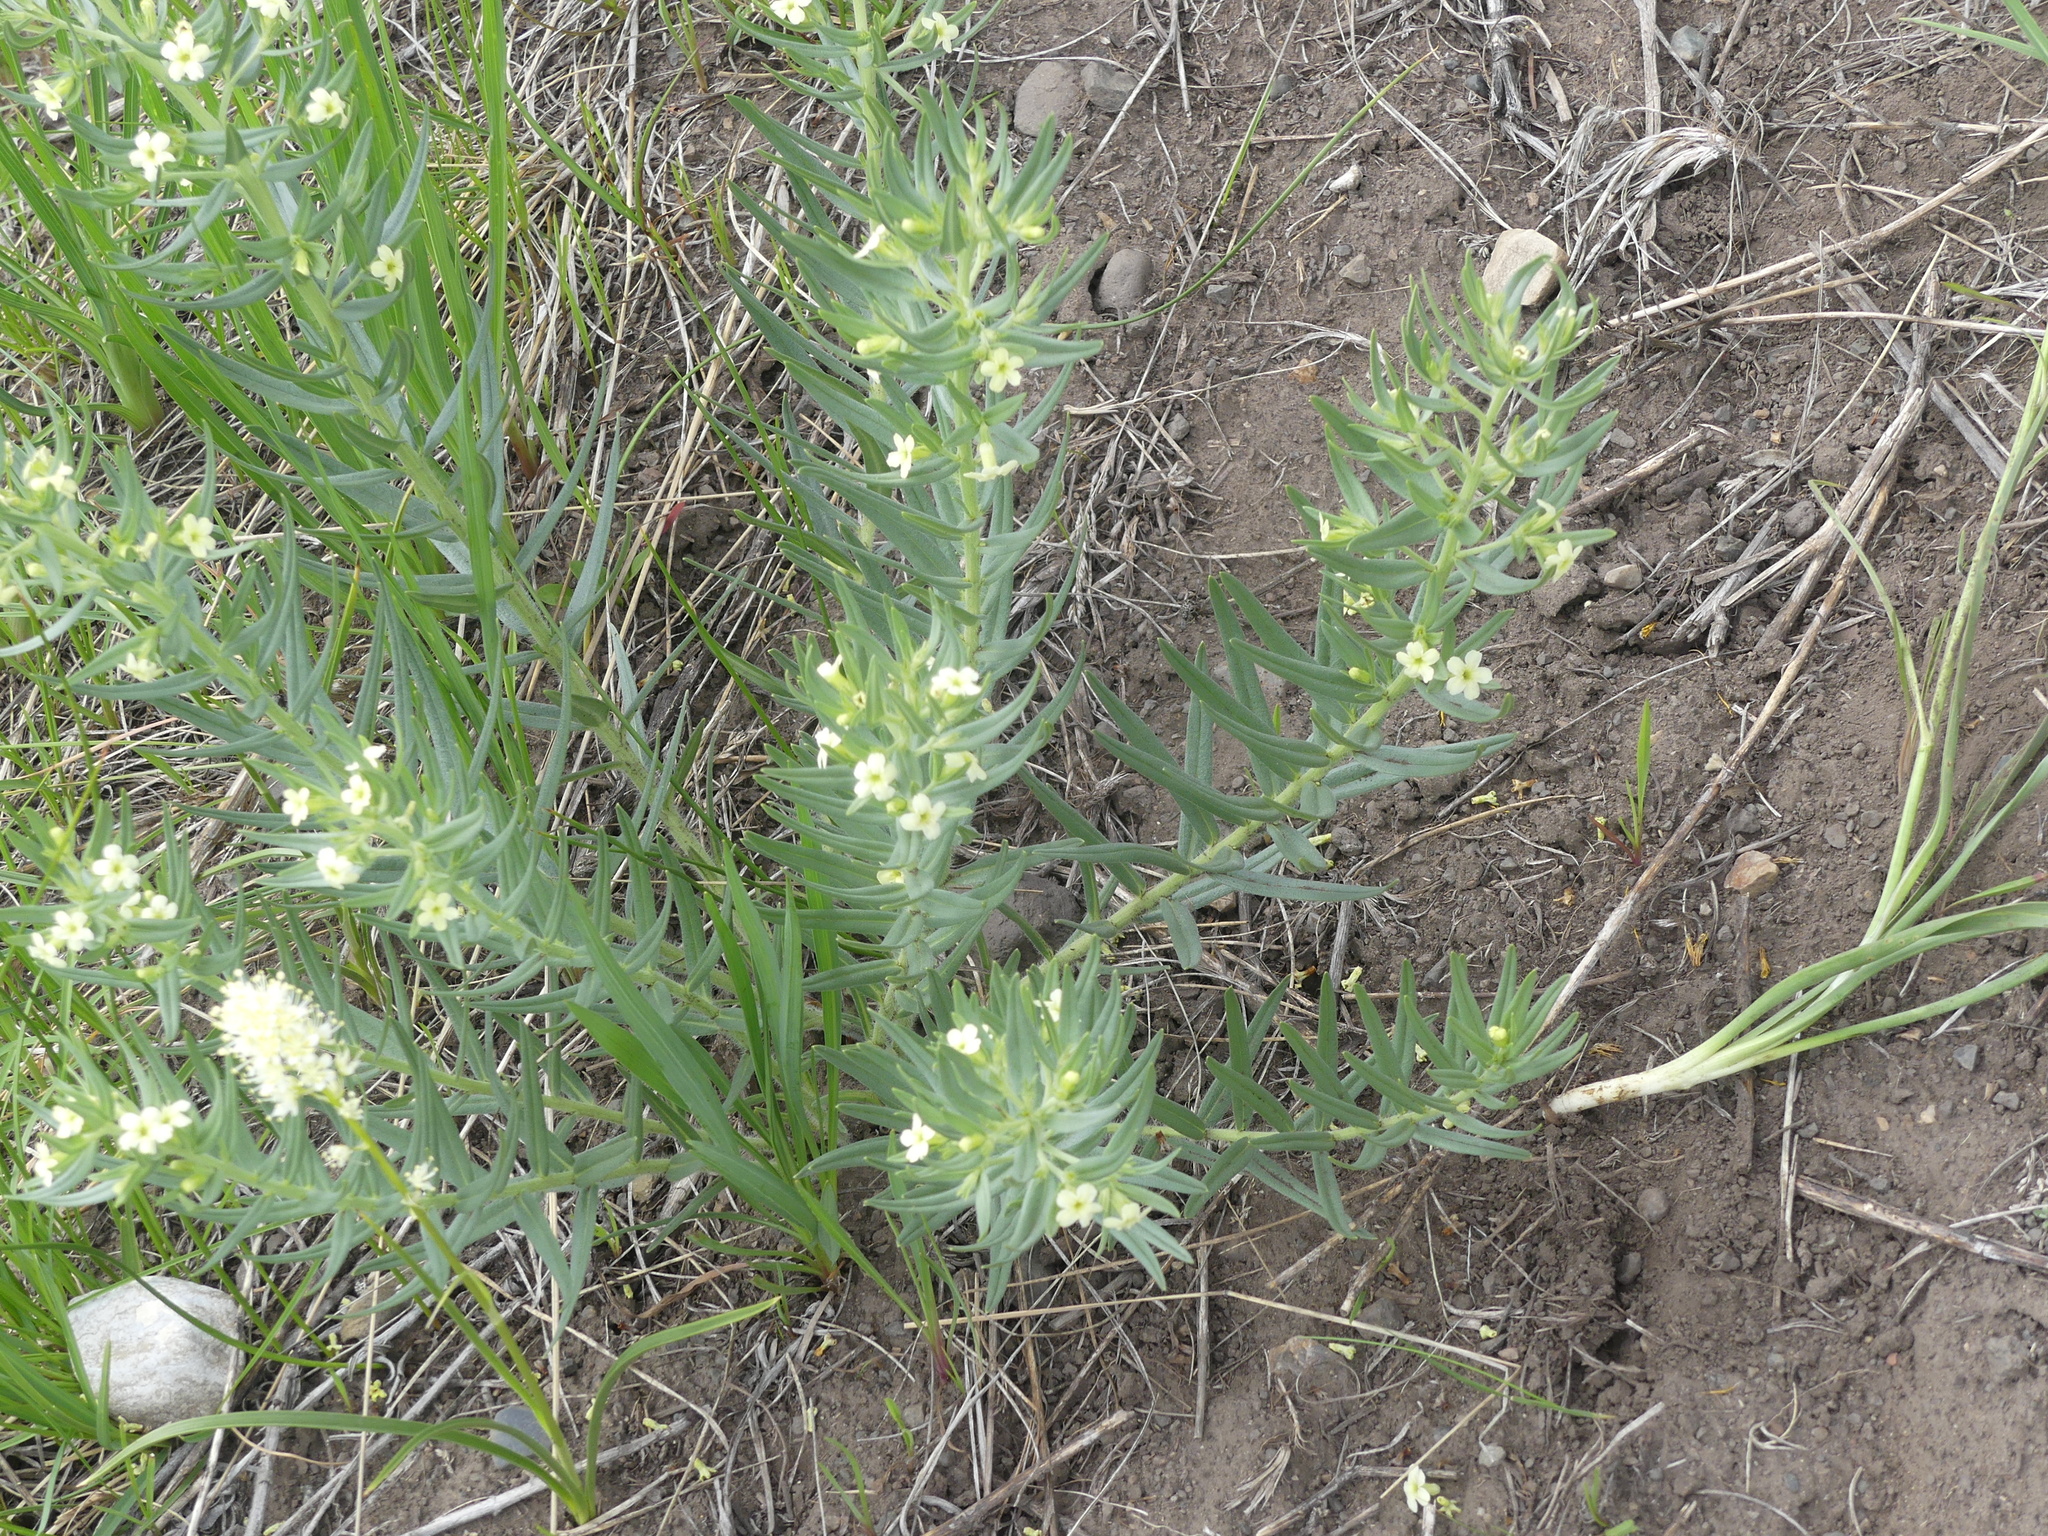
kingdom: Plantae
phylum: Tracheophyta
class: Magnoliopsida
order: Boraginales
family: Boraginaceae
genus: Lithospermum
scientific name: Lithospermum ruderale
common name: Western gromwell
